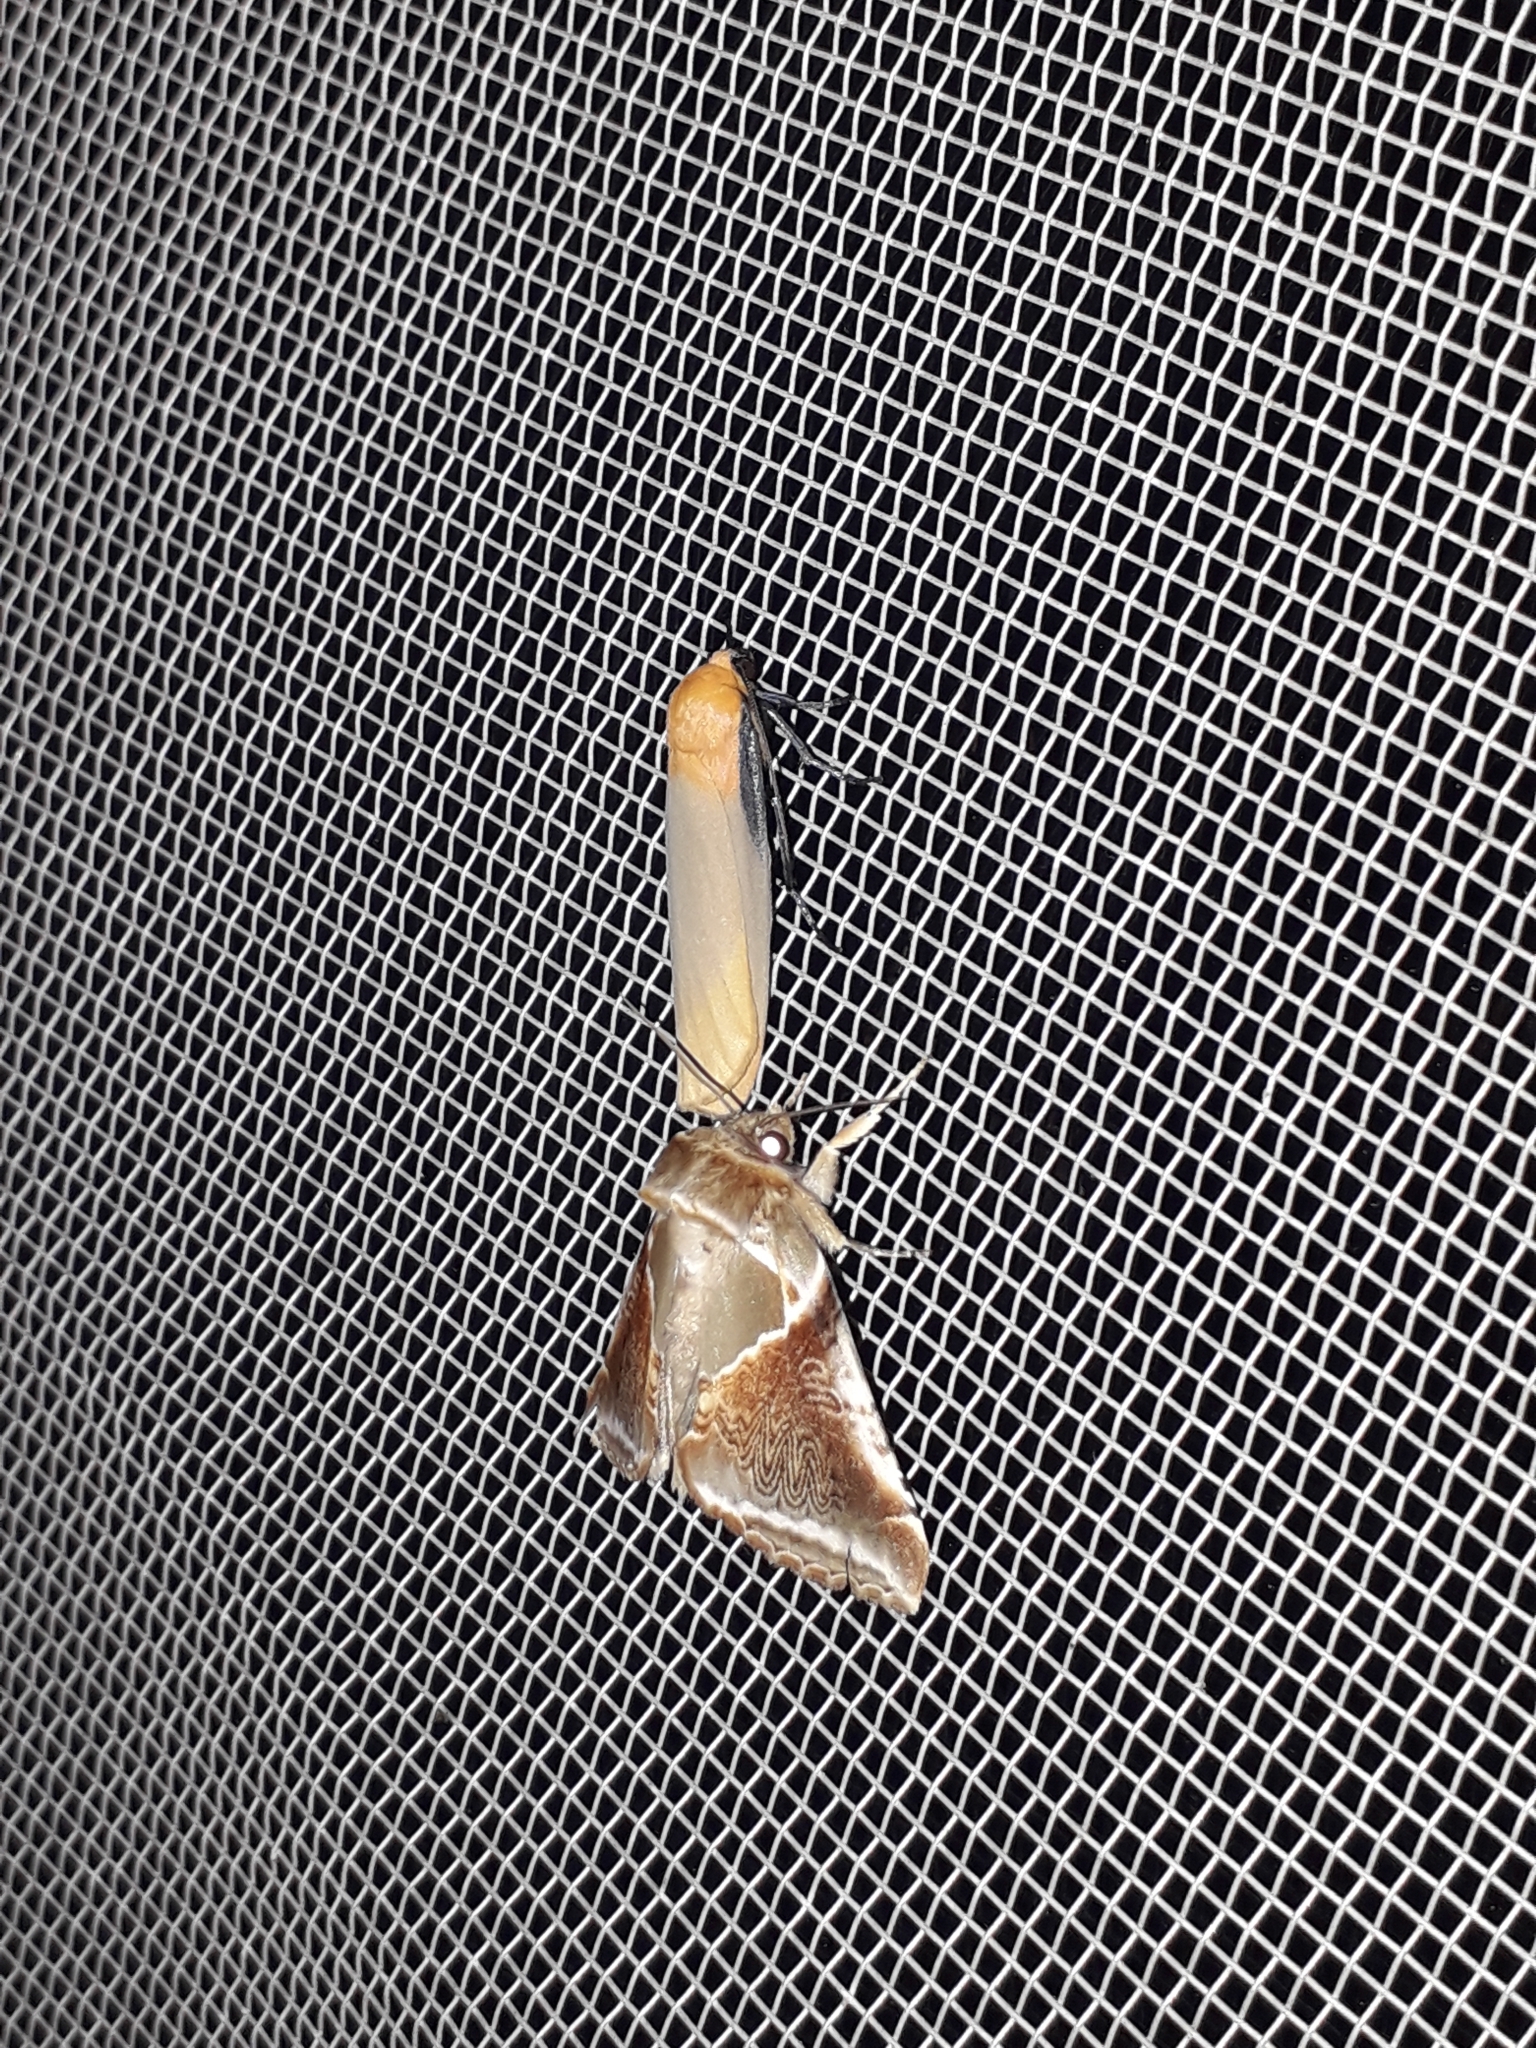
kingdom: Animalia
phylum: Arthropoda
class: Insecta
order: Lepidoptera
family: Drepanidae
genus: Habrosyne
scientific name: Habrosyne pyritoides
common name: Buff arches
